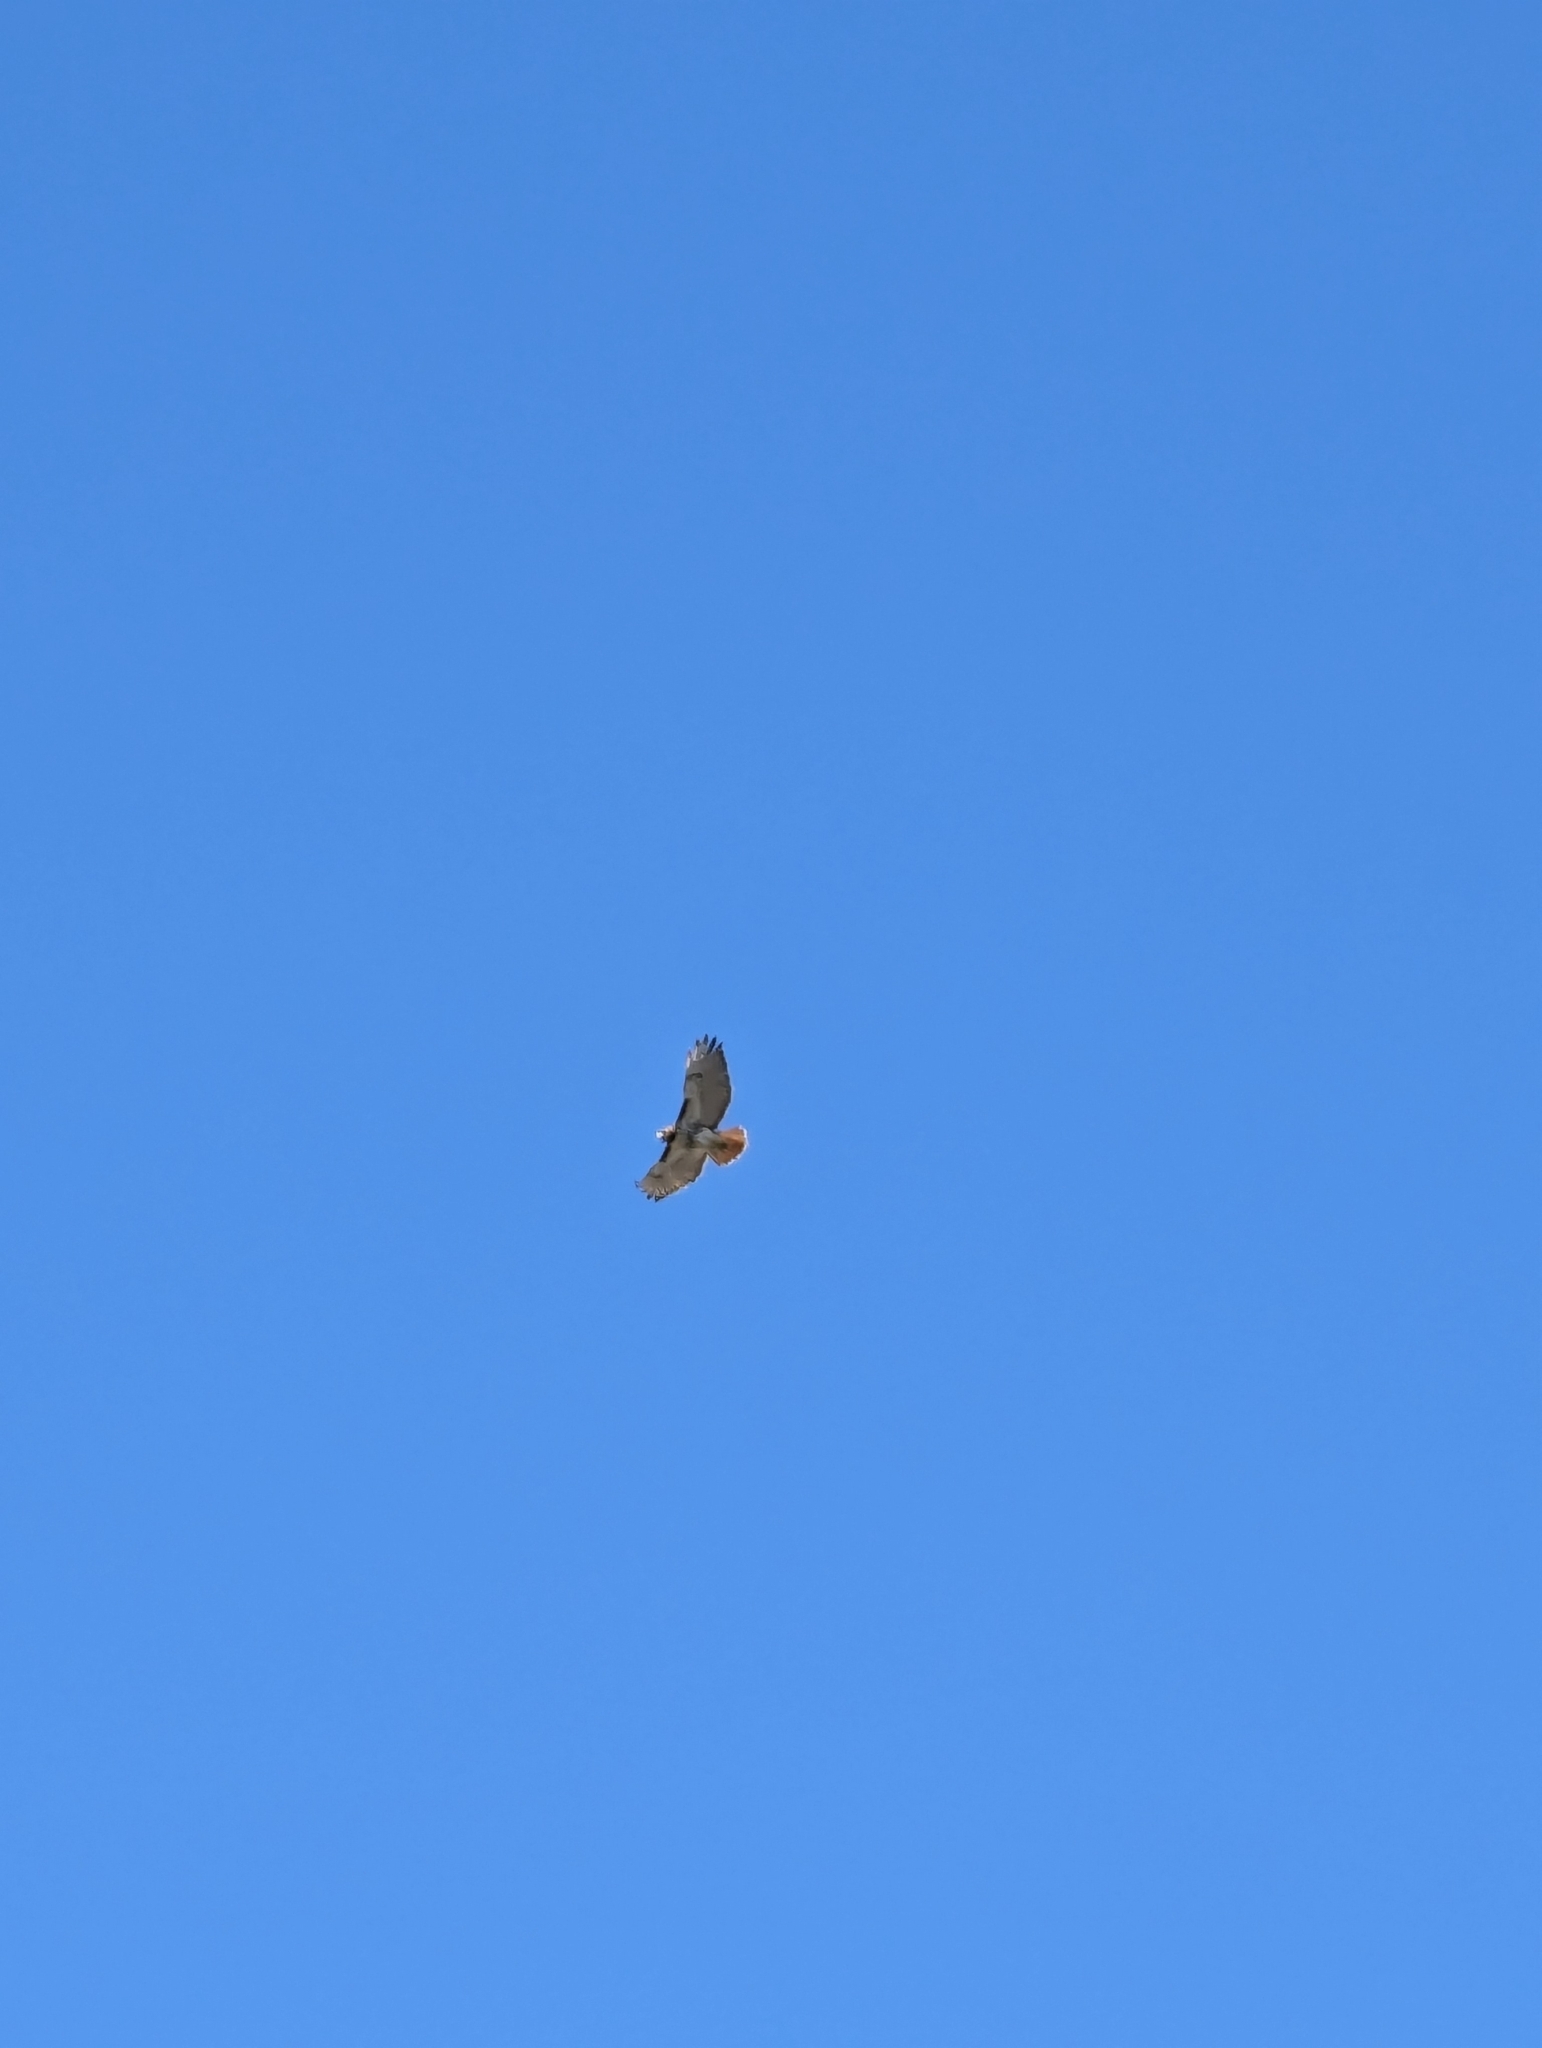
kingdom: Animalia
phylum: Chordata
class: Aves
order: Accipitriformes
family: Accipitridae
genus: Buteo
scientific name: Buteo jamaicensis
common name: Red-tailed hawk
